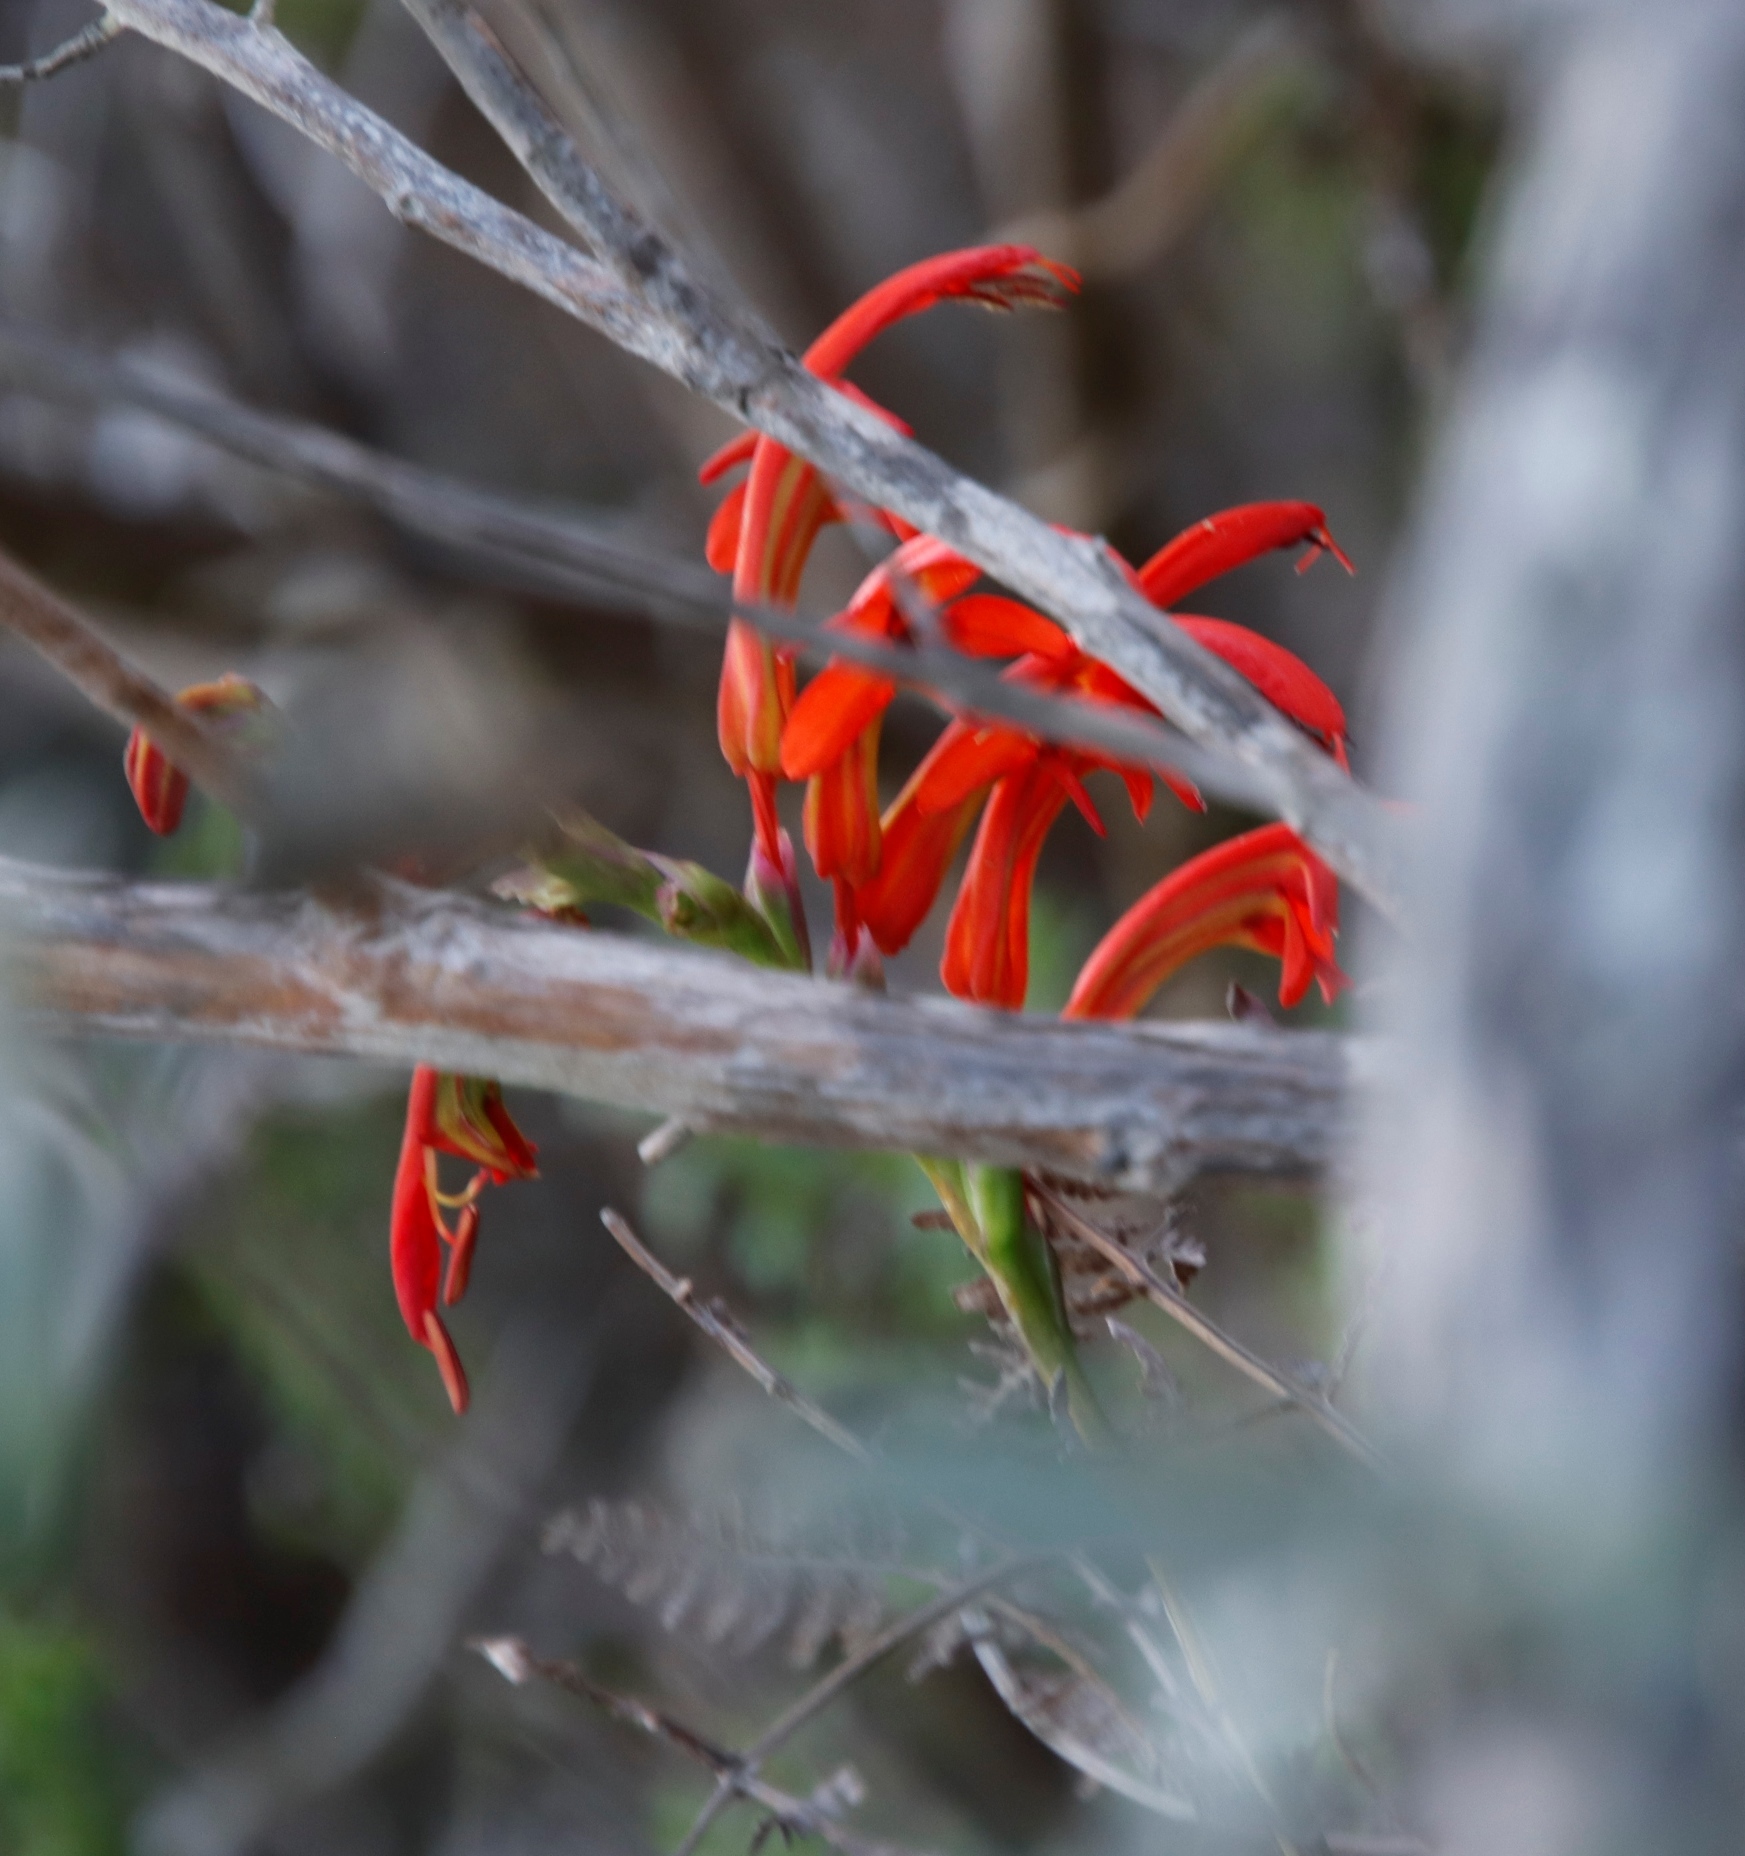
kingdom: Plantae
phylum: Tracheophyta
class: Liliopsida
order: Asparagales
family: Iridaceae
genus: Chasmanthe
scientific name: Chasmanthe aethiopica
